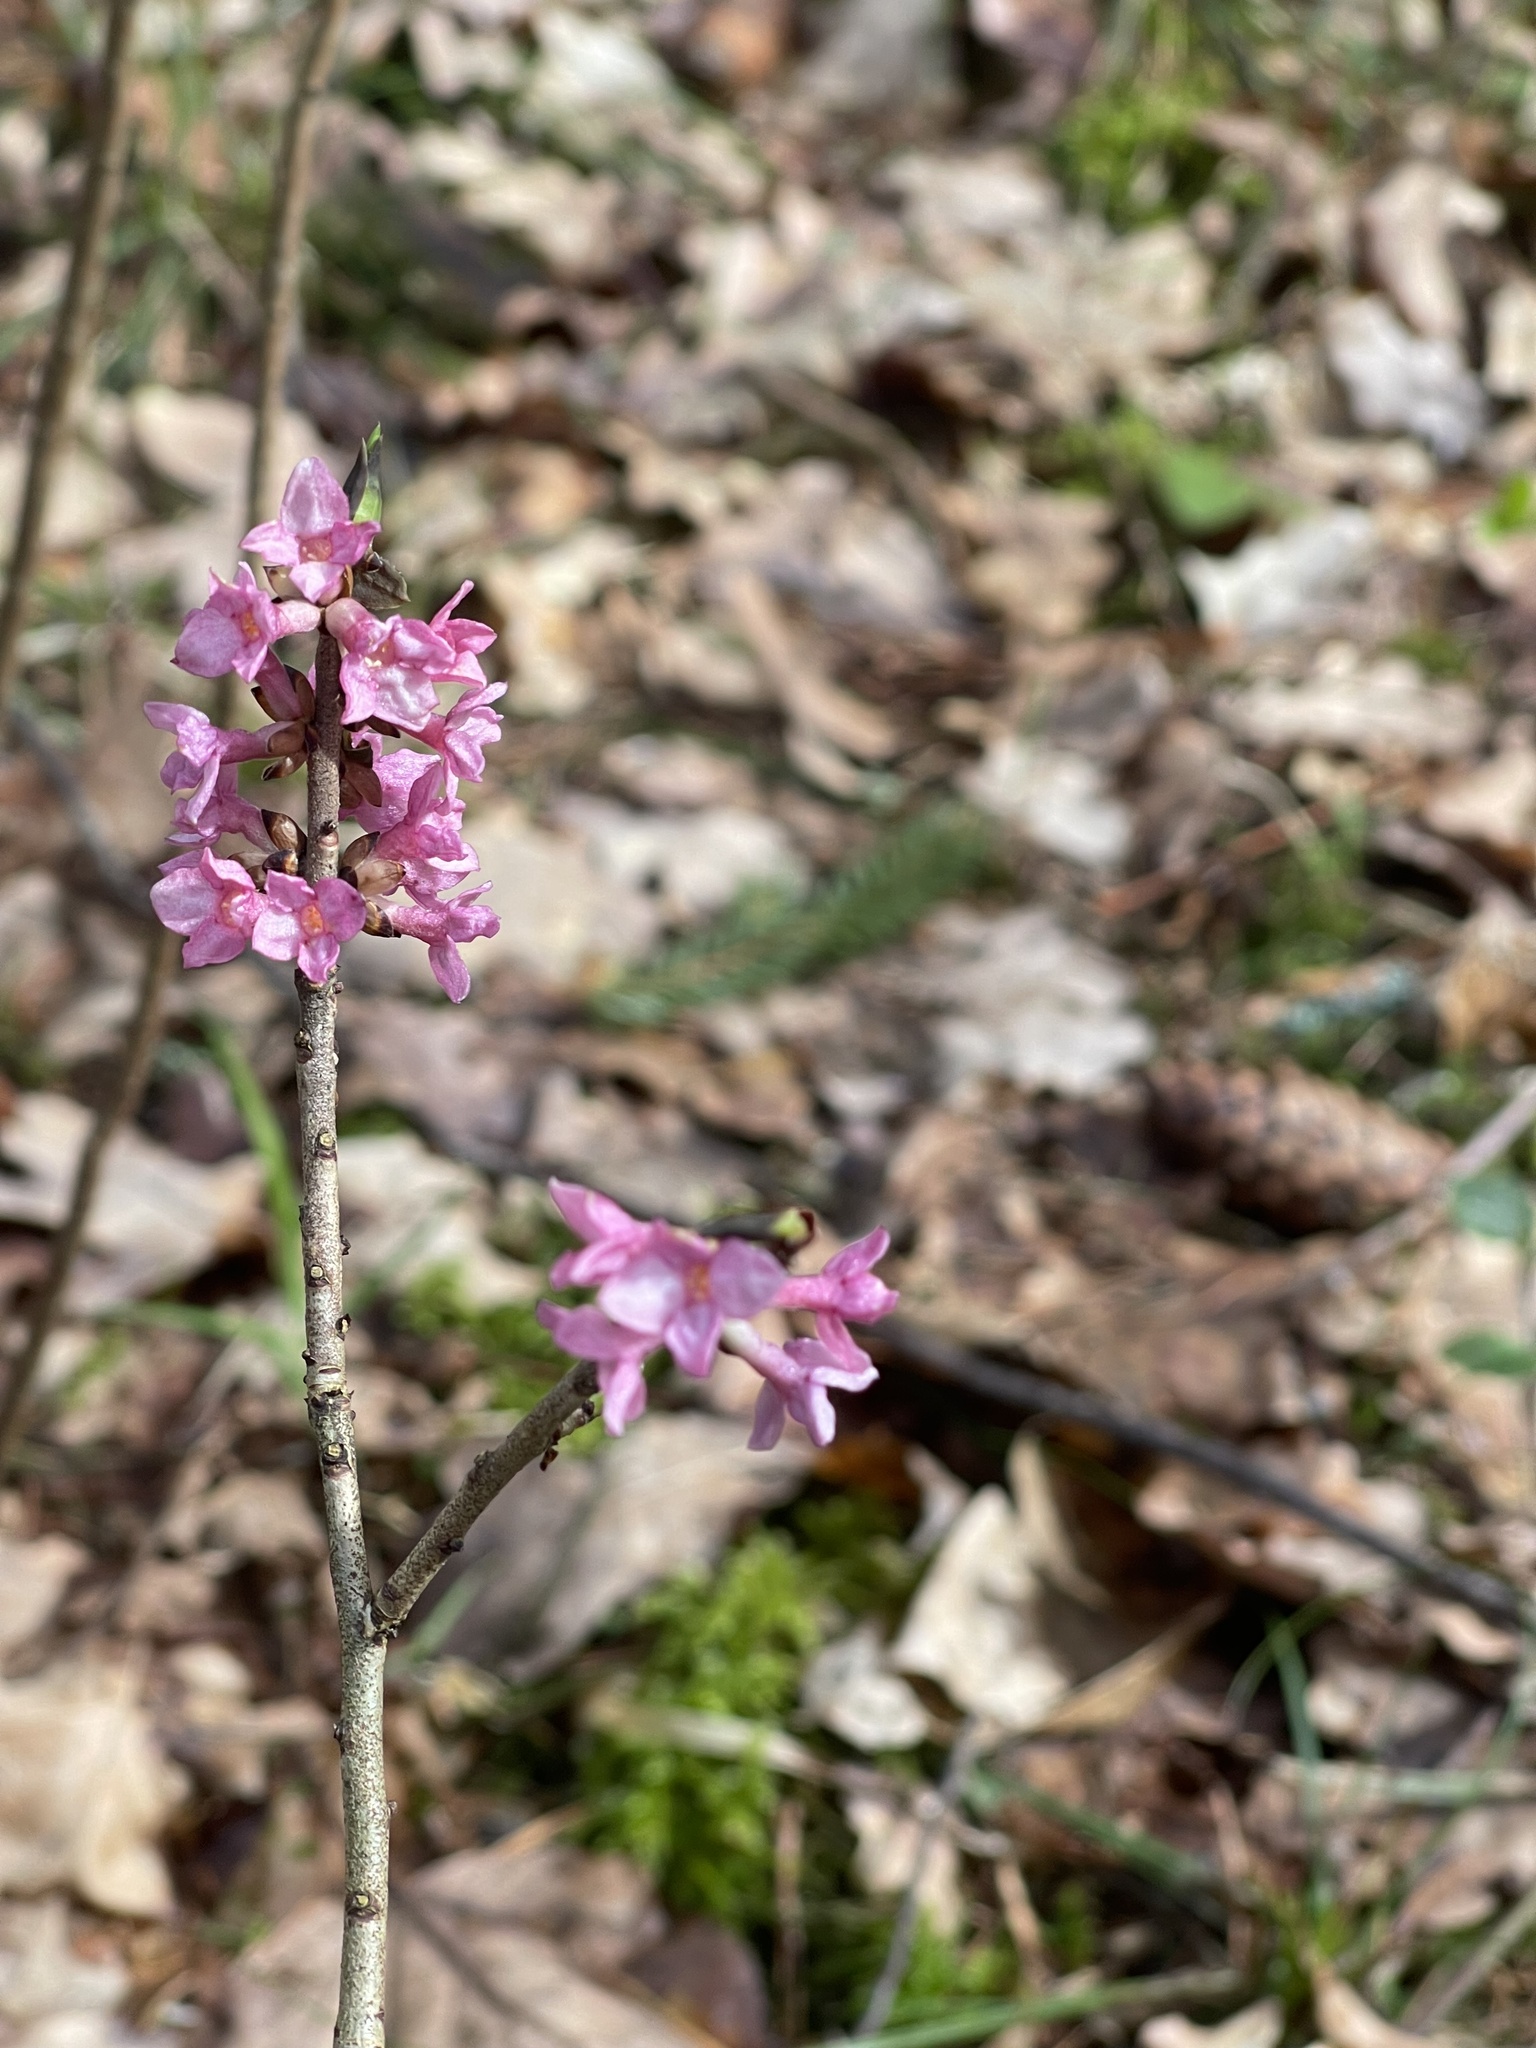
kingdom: Plantae
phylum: Tracheophyta
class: Magnoliopsida
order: Malvales
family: Thymelaeaceae
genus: Daphne
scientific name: Daphne mezereum
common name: Mezereon
